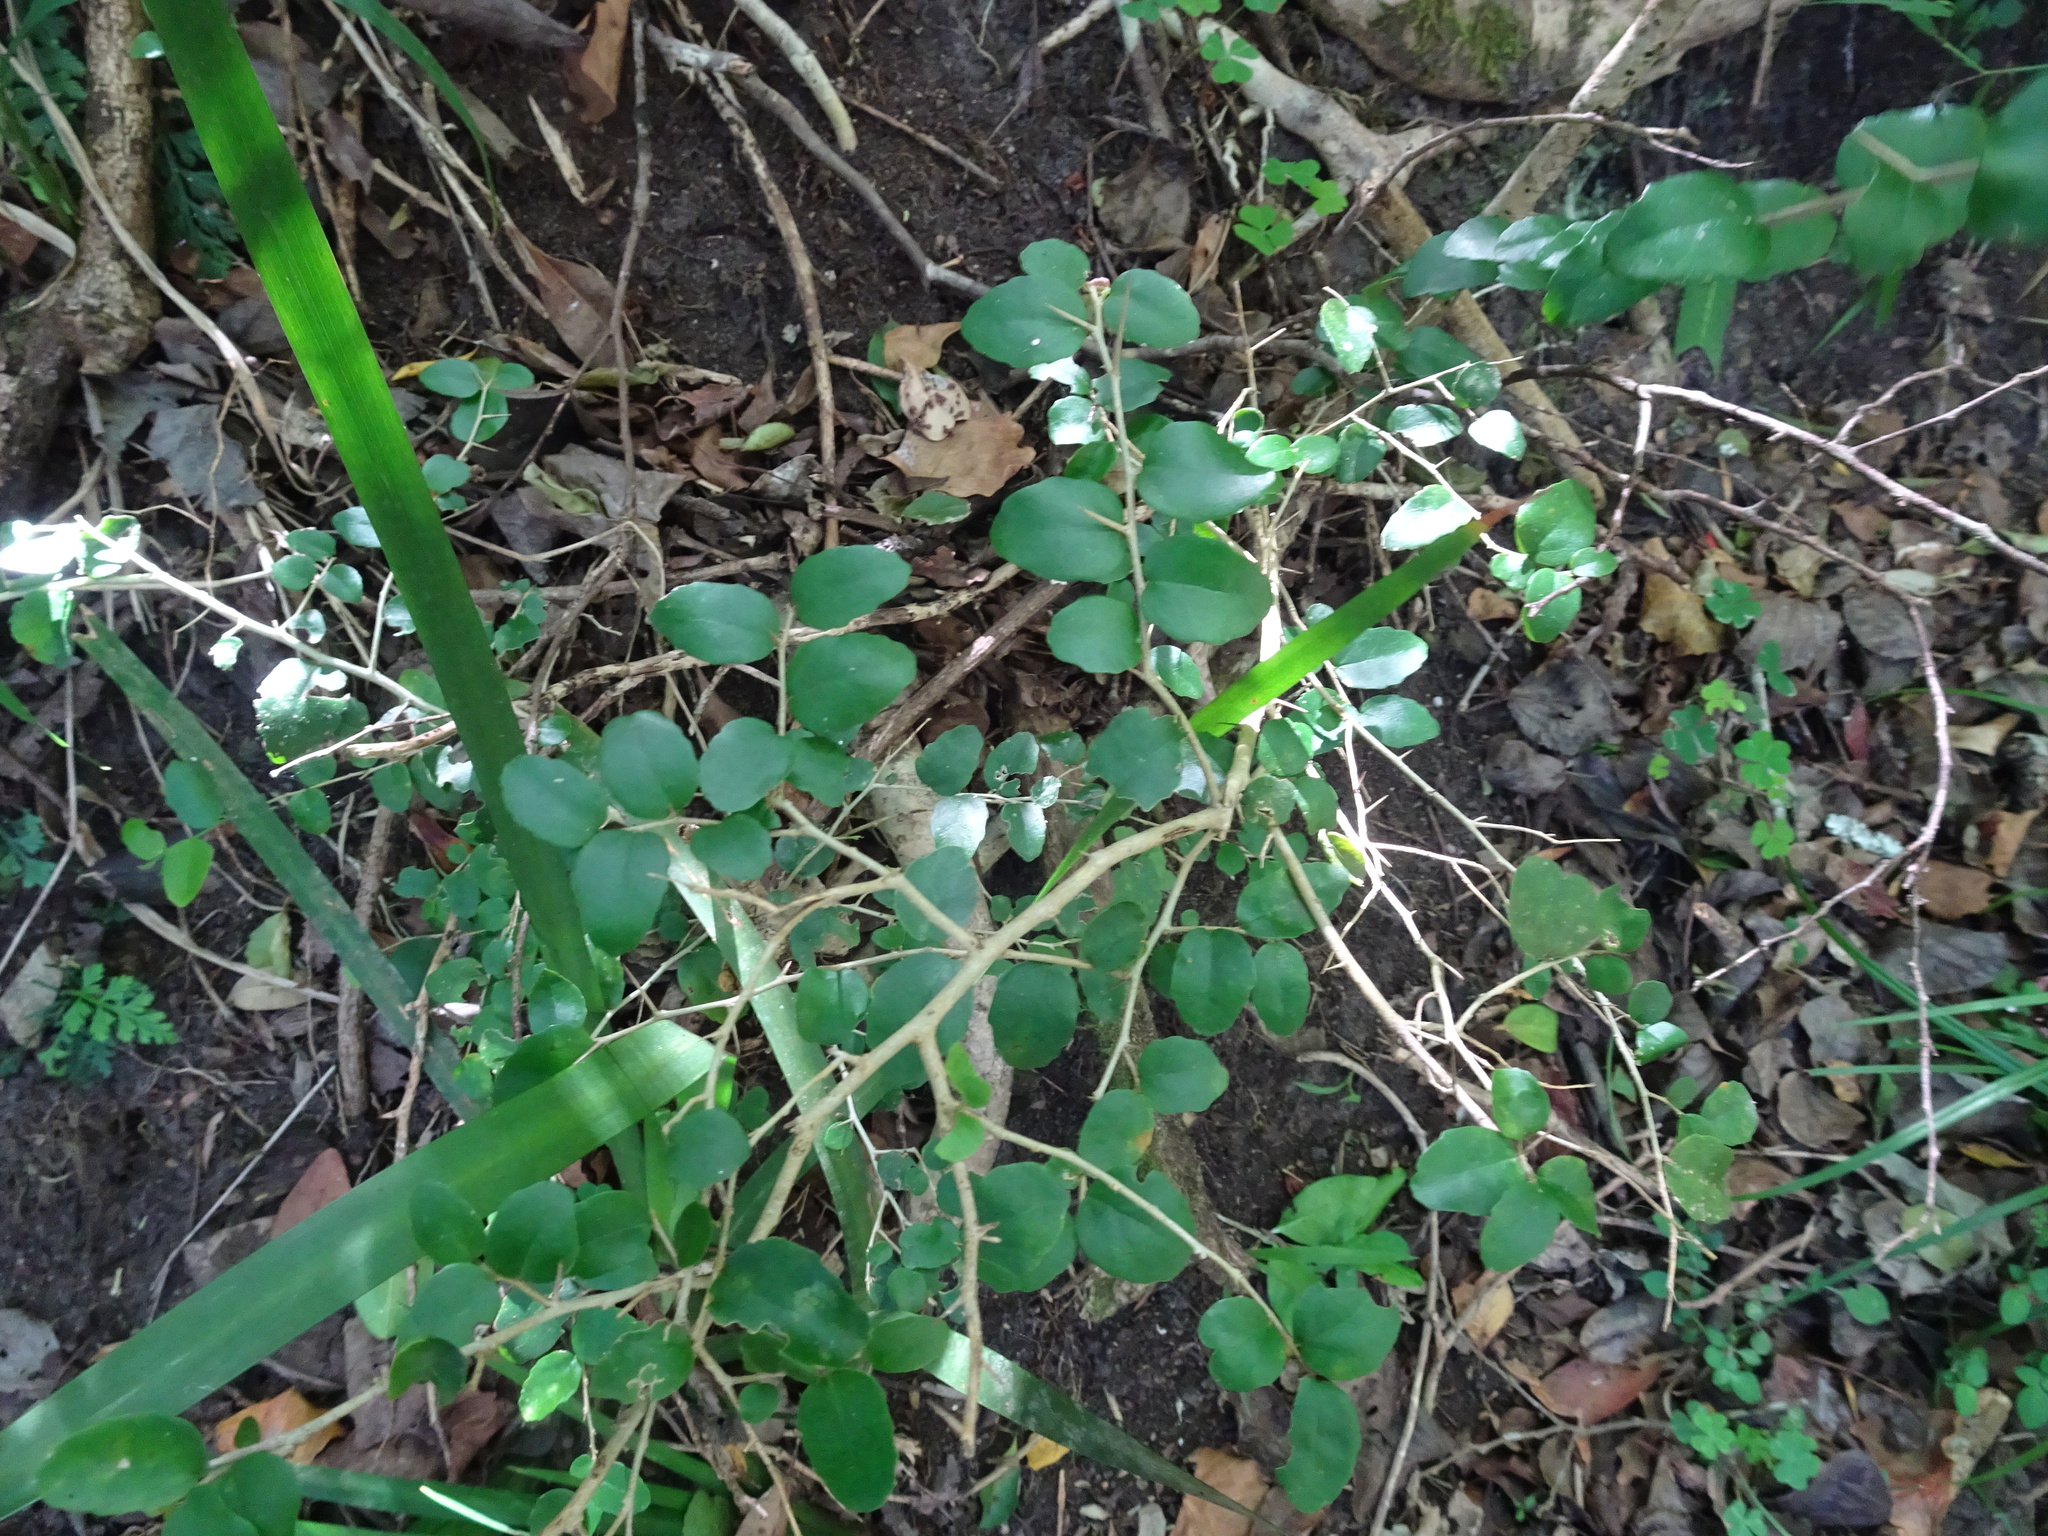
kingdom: Plantae
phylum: Tracheophyta
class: Magnoliopsida
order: Malpighiales
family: Salicaceae
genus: Dovyalis
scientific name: Dovyalis rhamnoides
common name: Sourberry
